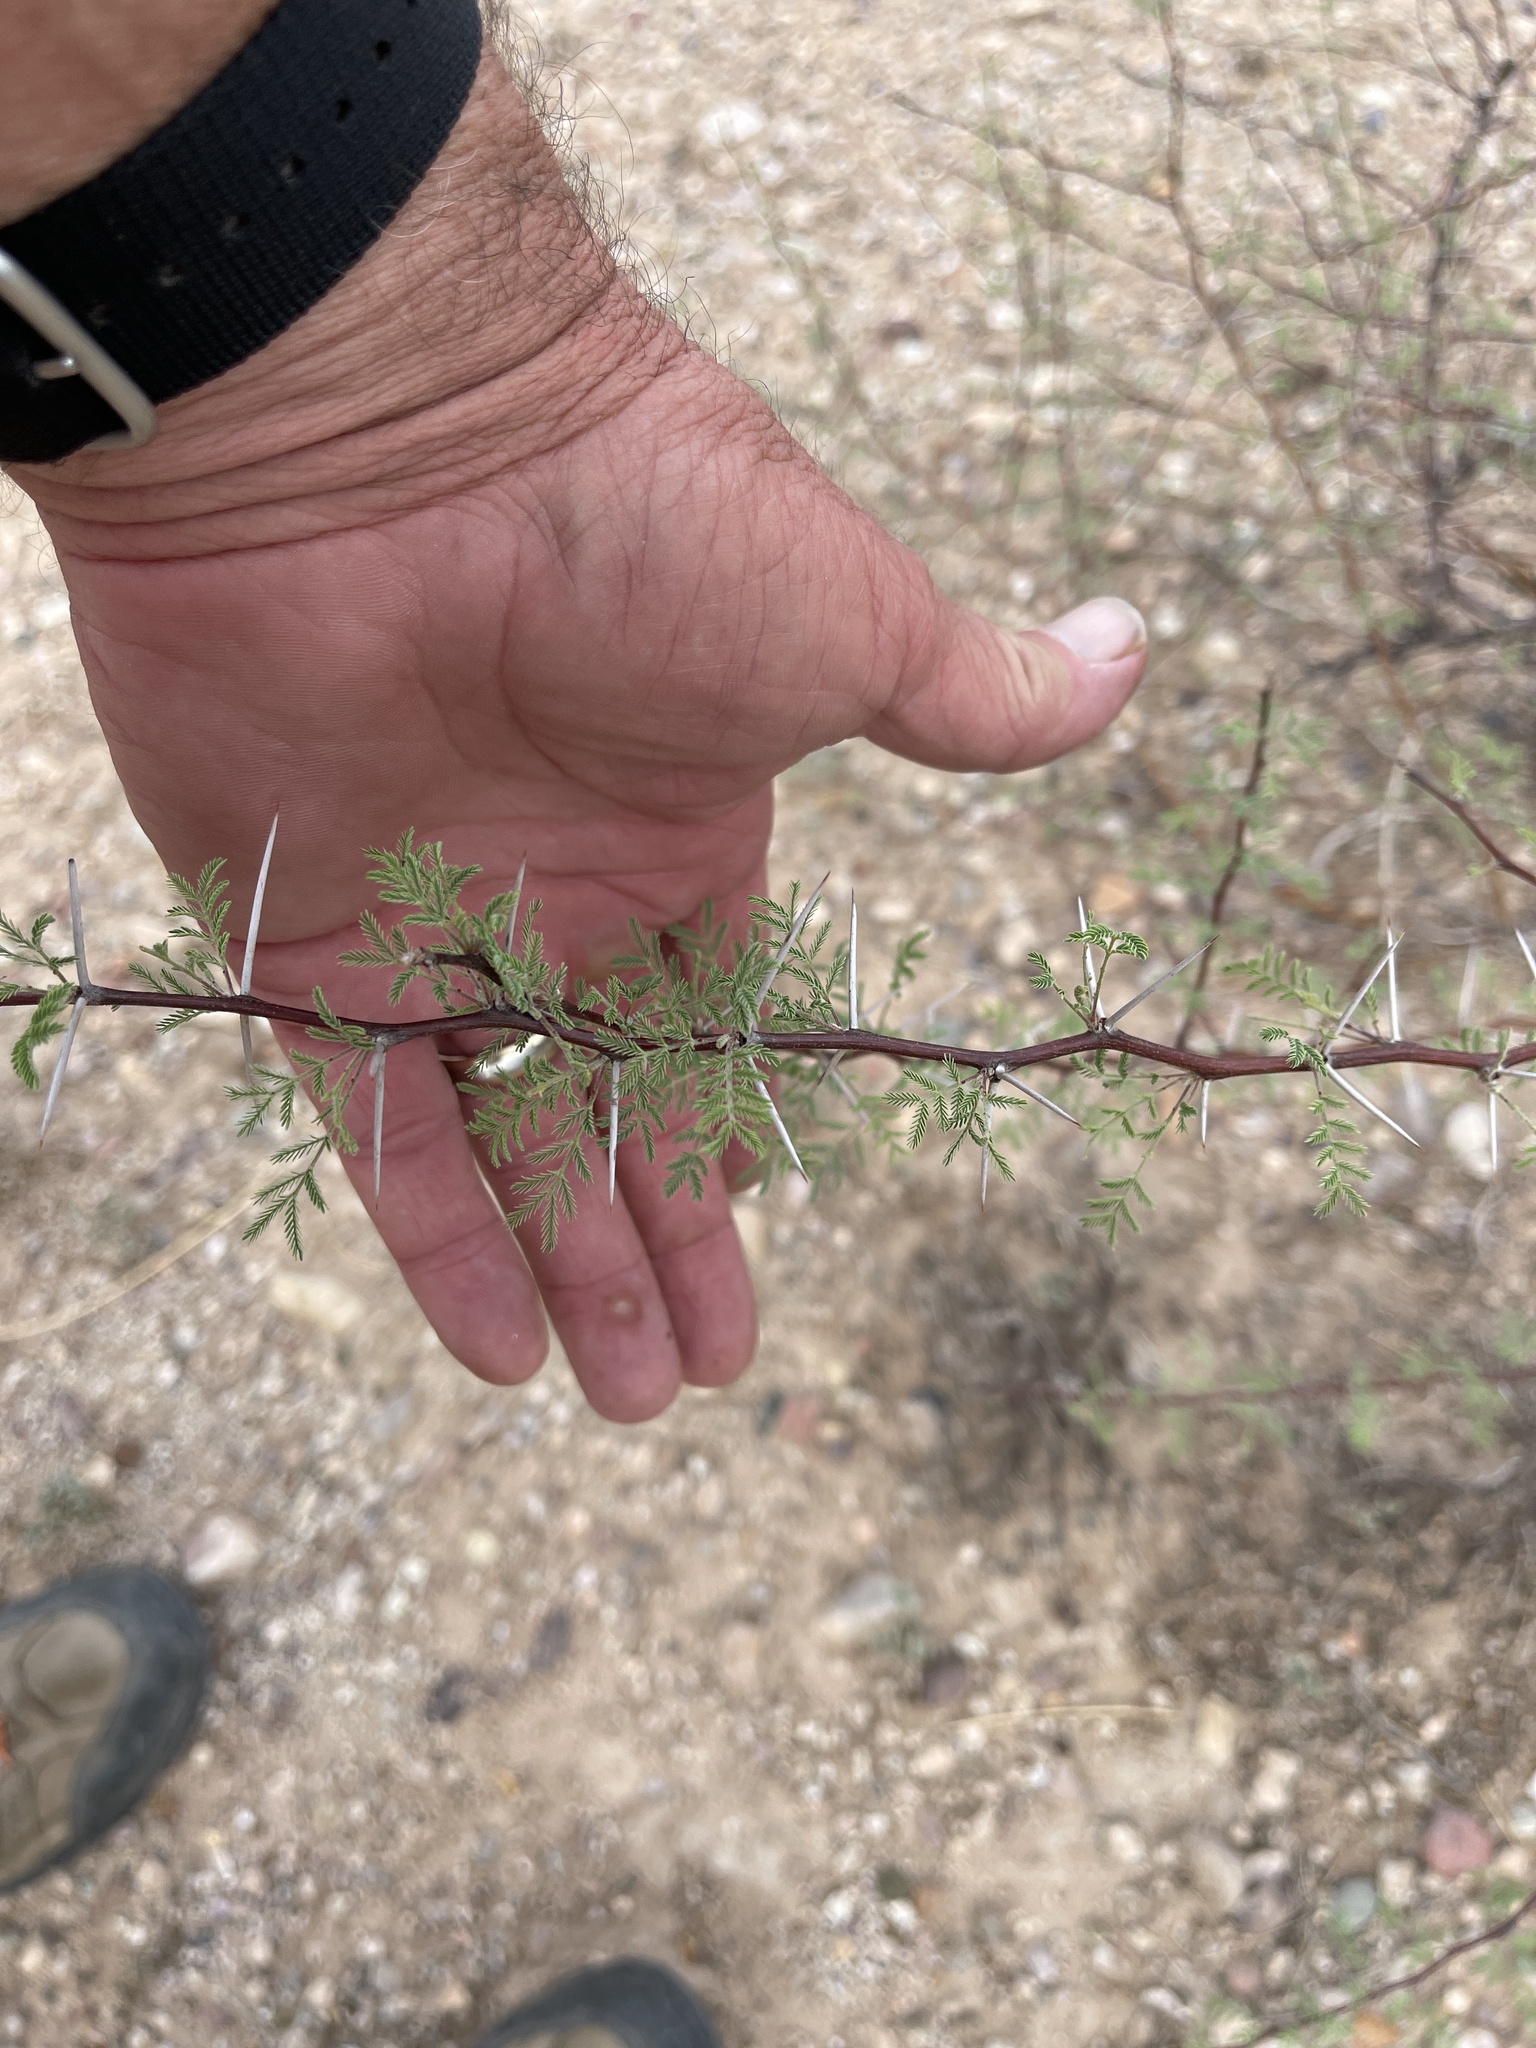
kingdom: Plantae
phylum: Tracheophyta
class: Magnoliopsida
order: Fabales
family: Fabaceae
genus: Vachellia
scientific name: Vachellia constricta
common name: Mescat acacia
